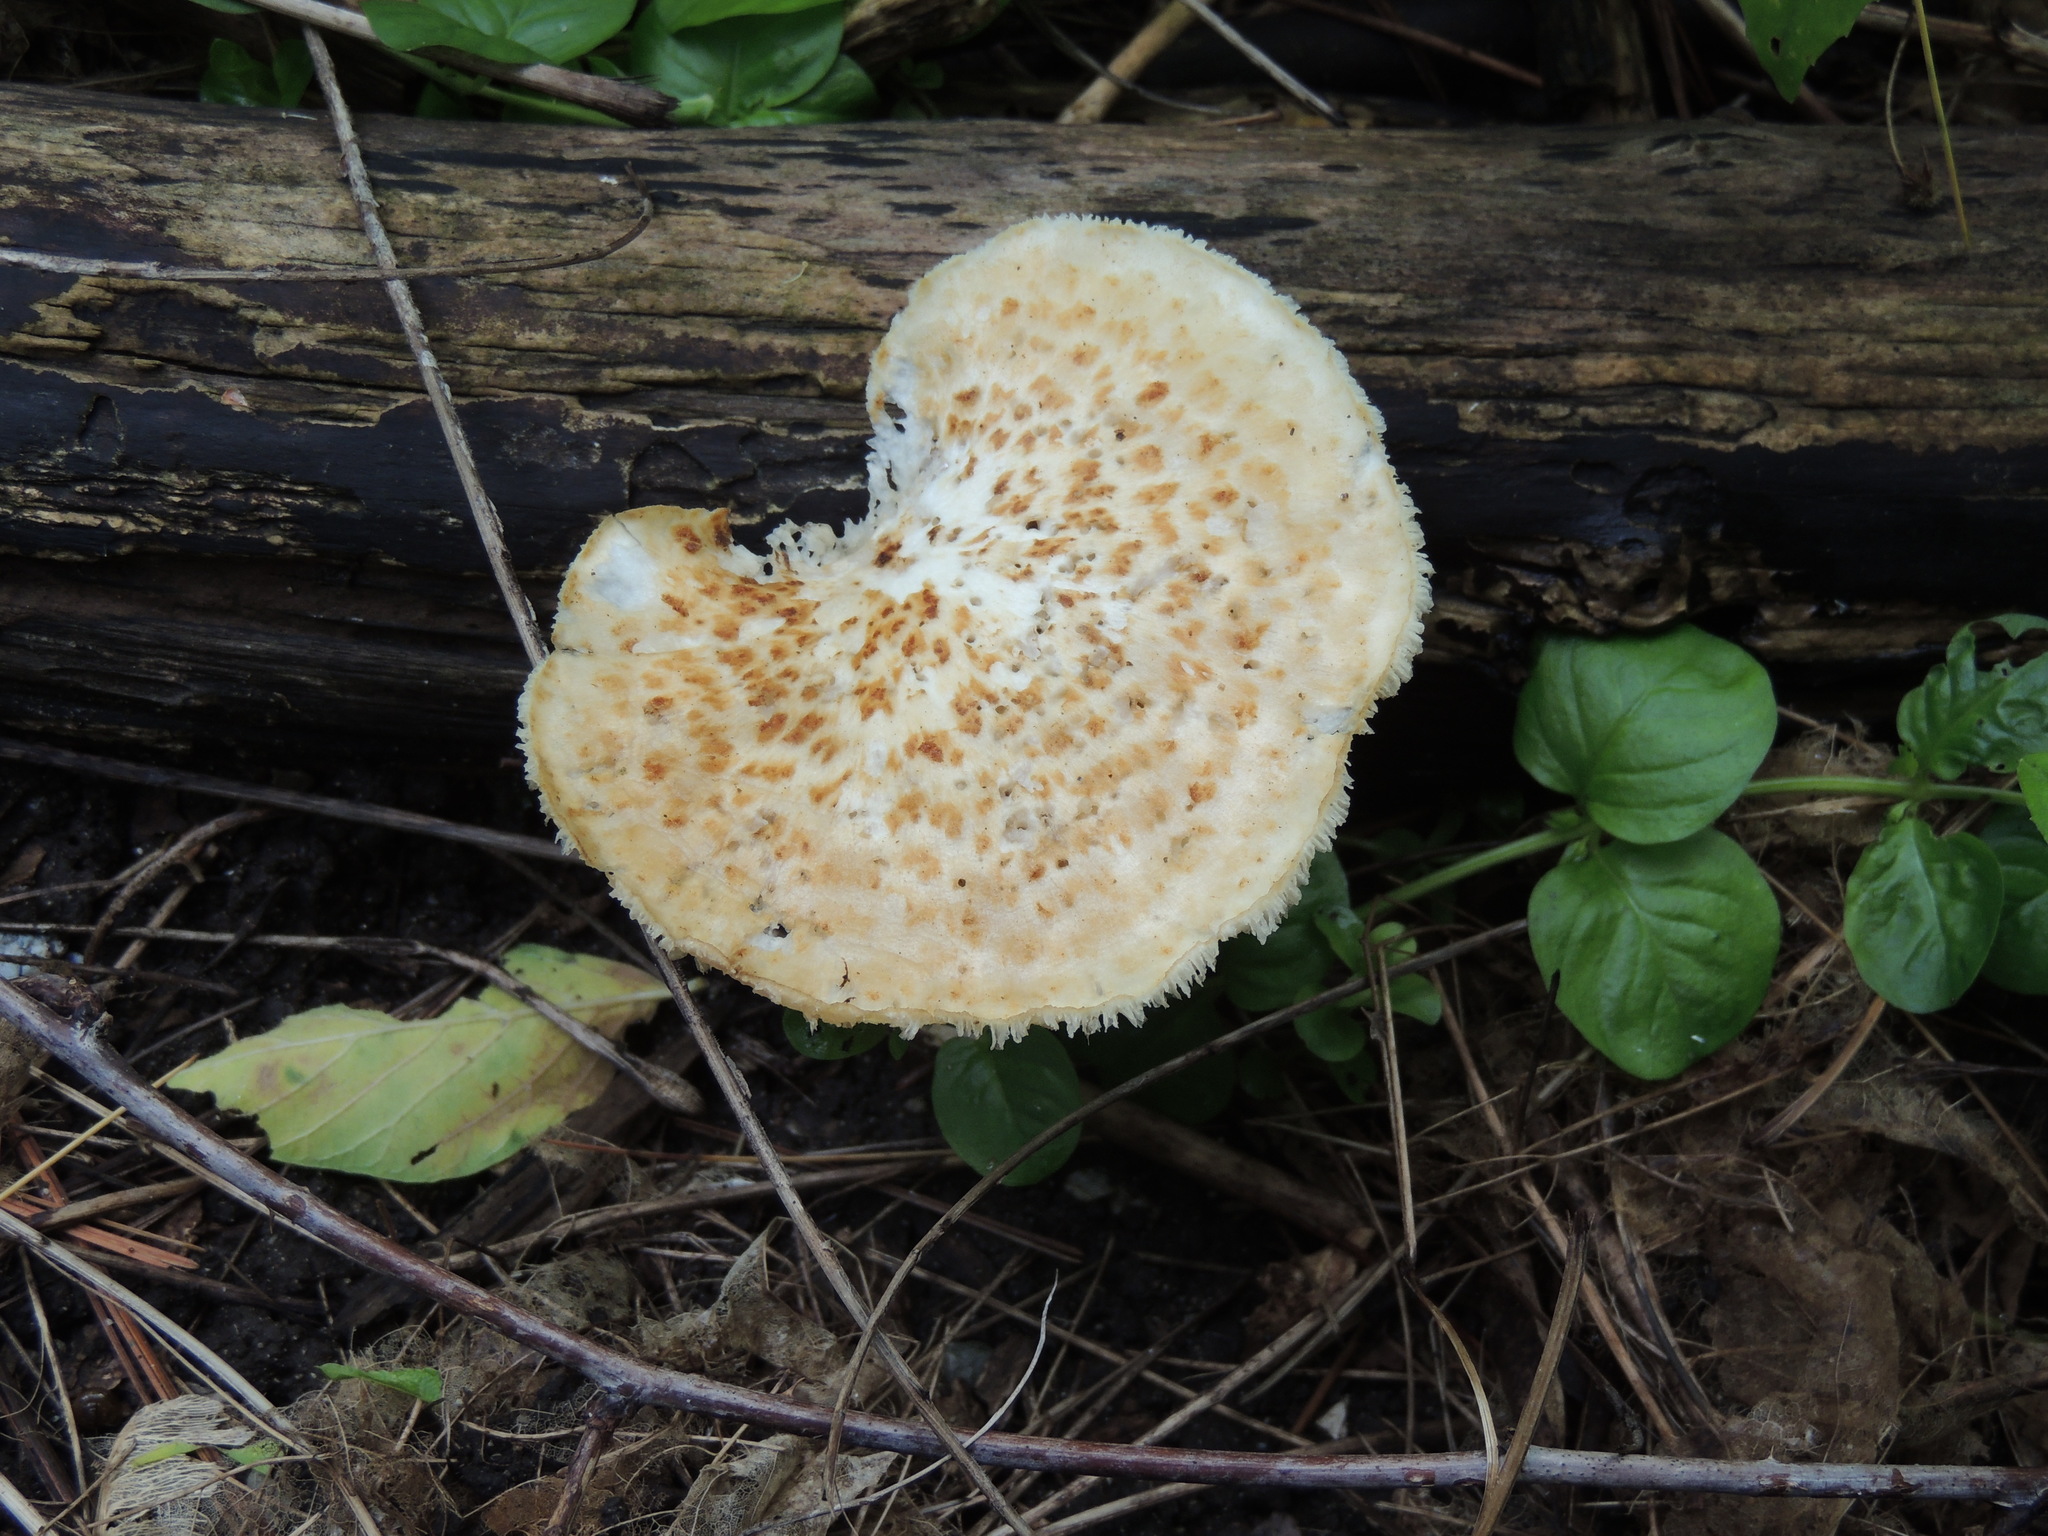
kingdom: Fungi
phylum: Basidiomycota
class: Agaricomycetes
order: Polyporales
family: Polyporaceae
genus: Cerioporus
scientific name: Cerioporus squamosus
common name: Dryad's saddle
